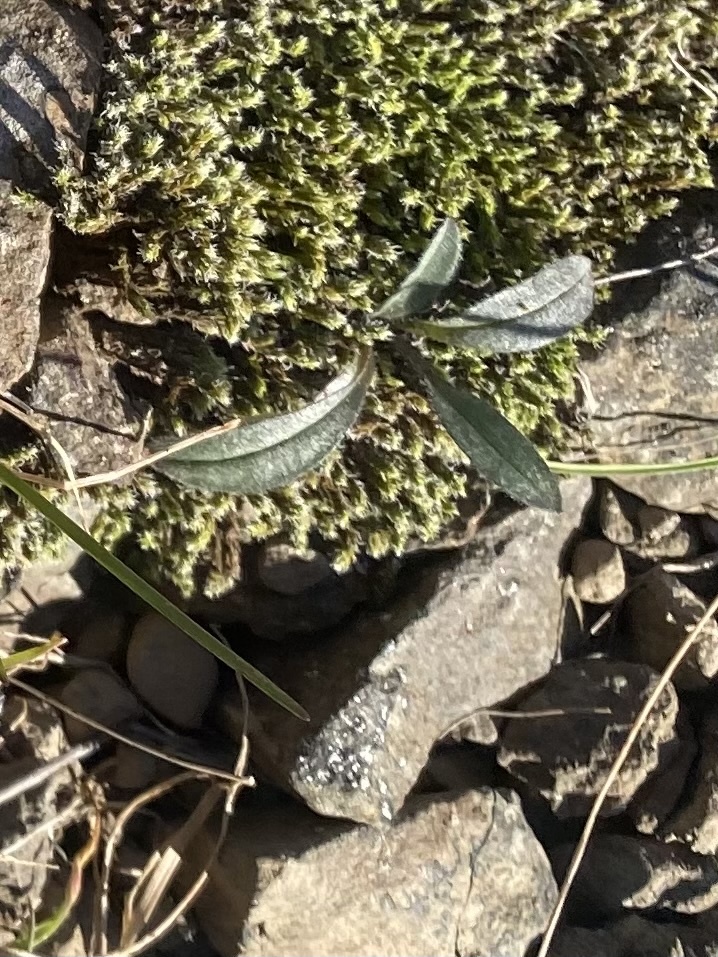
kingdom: Plantae
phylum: Tracheophyta
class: Magnoliopsida
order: Boraginales
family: Boraginaceae
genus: Myosotis
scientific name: Myosotis asiatica
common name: Asian forget-me-not
